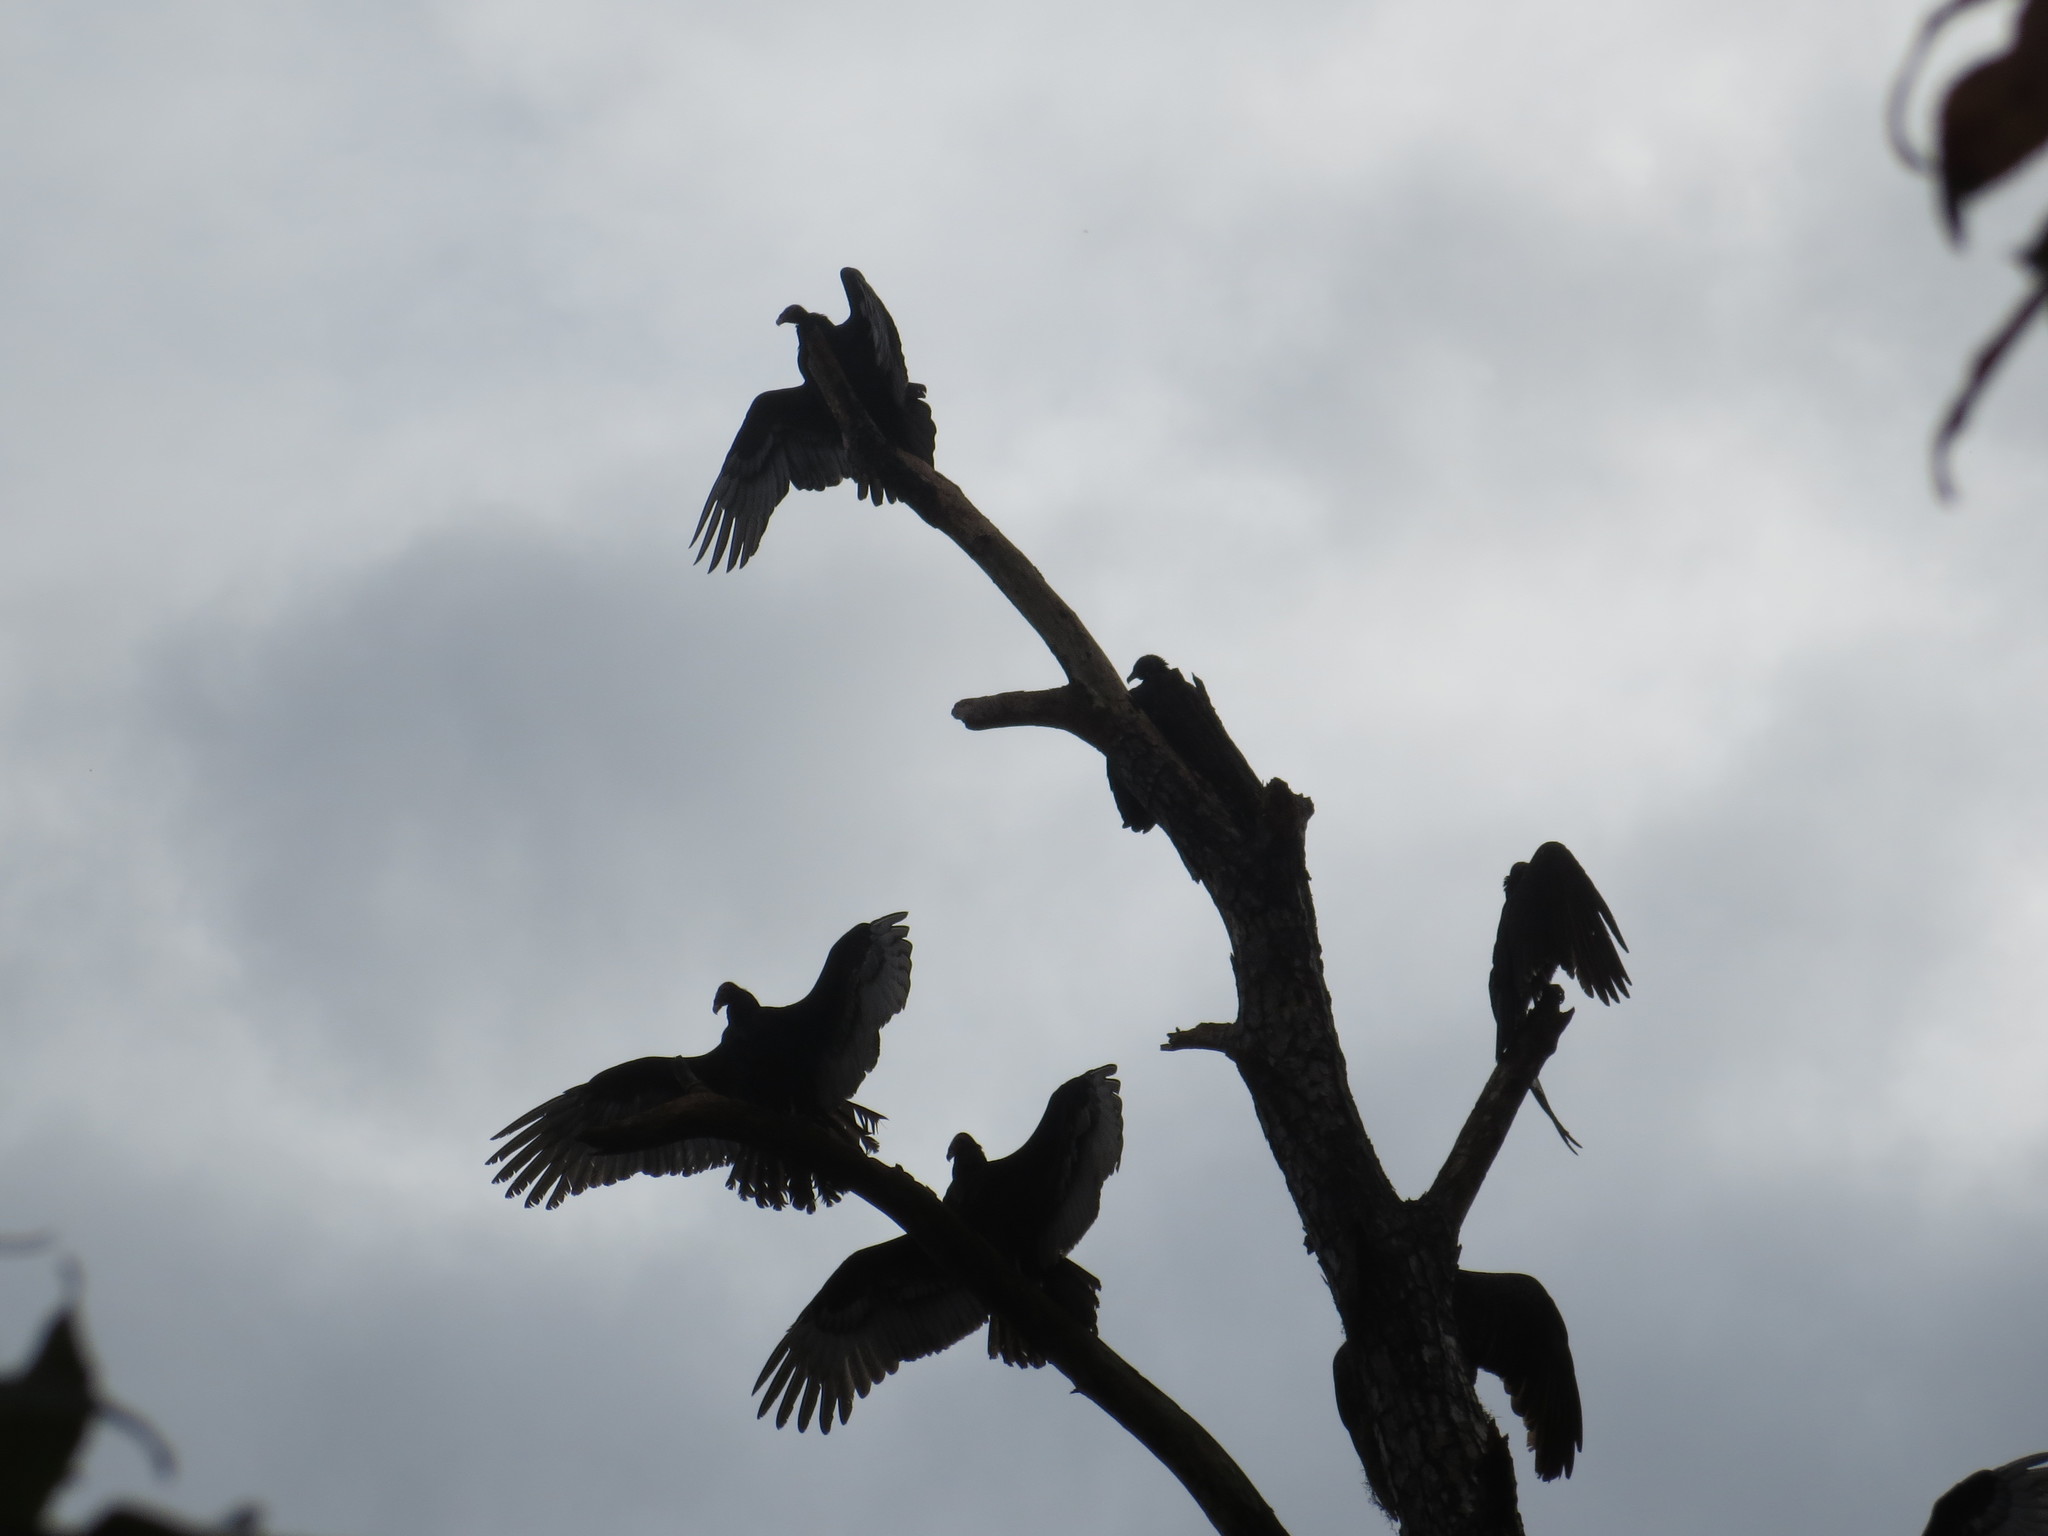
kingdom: Animalia
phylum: Chordata
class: Aves
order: Accipitriformes
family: Cathartidae
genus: Cathartes
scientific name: Cathartes aura
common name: Turkey vulture
